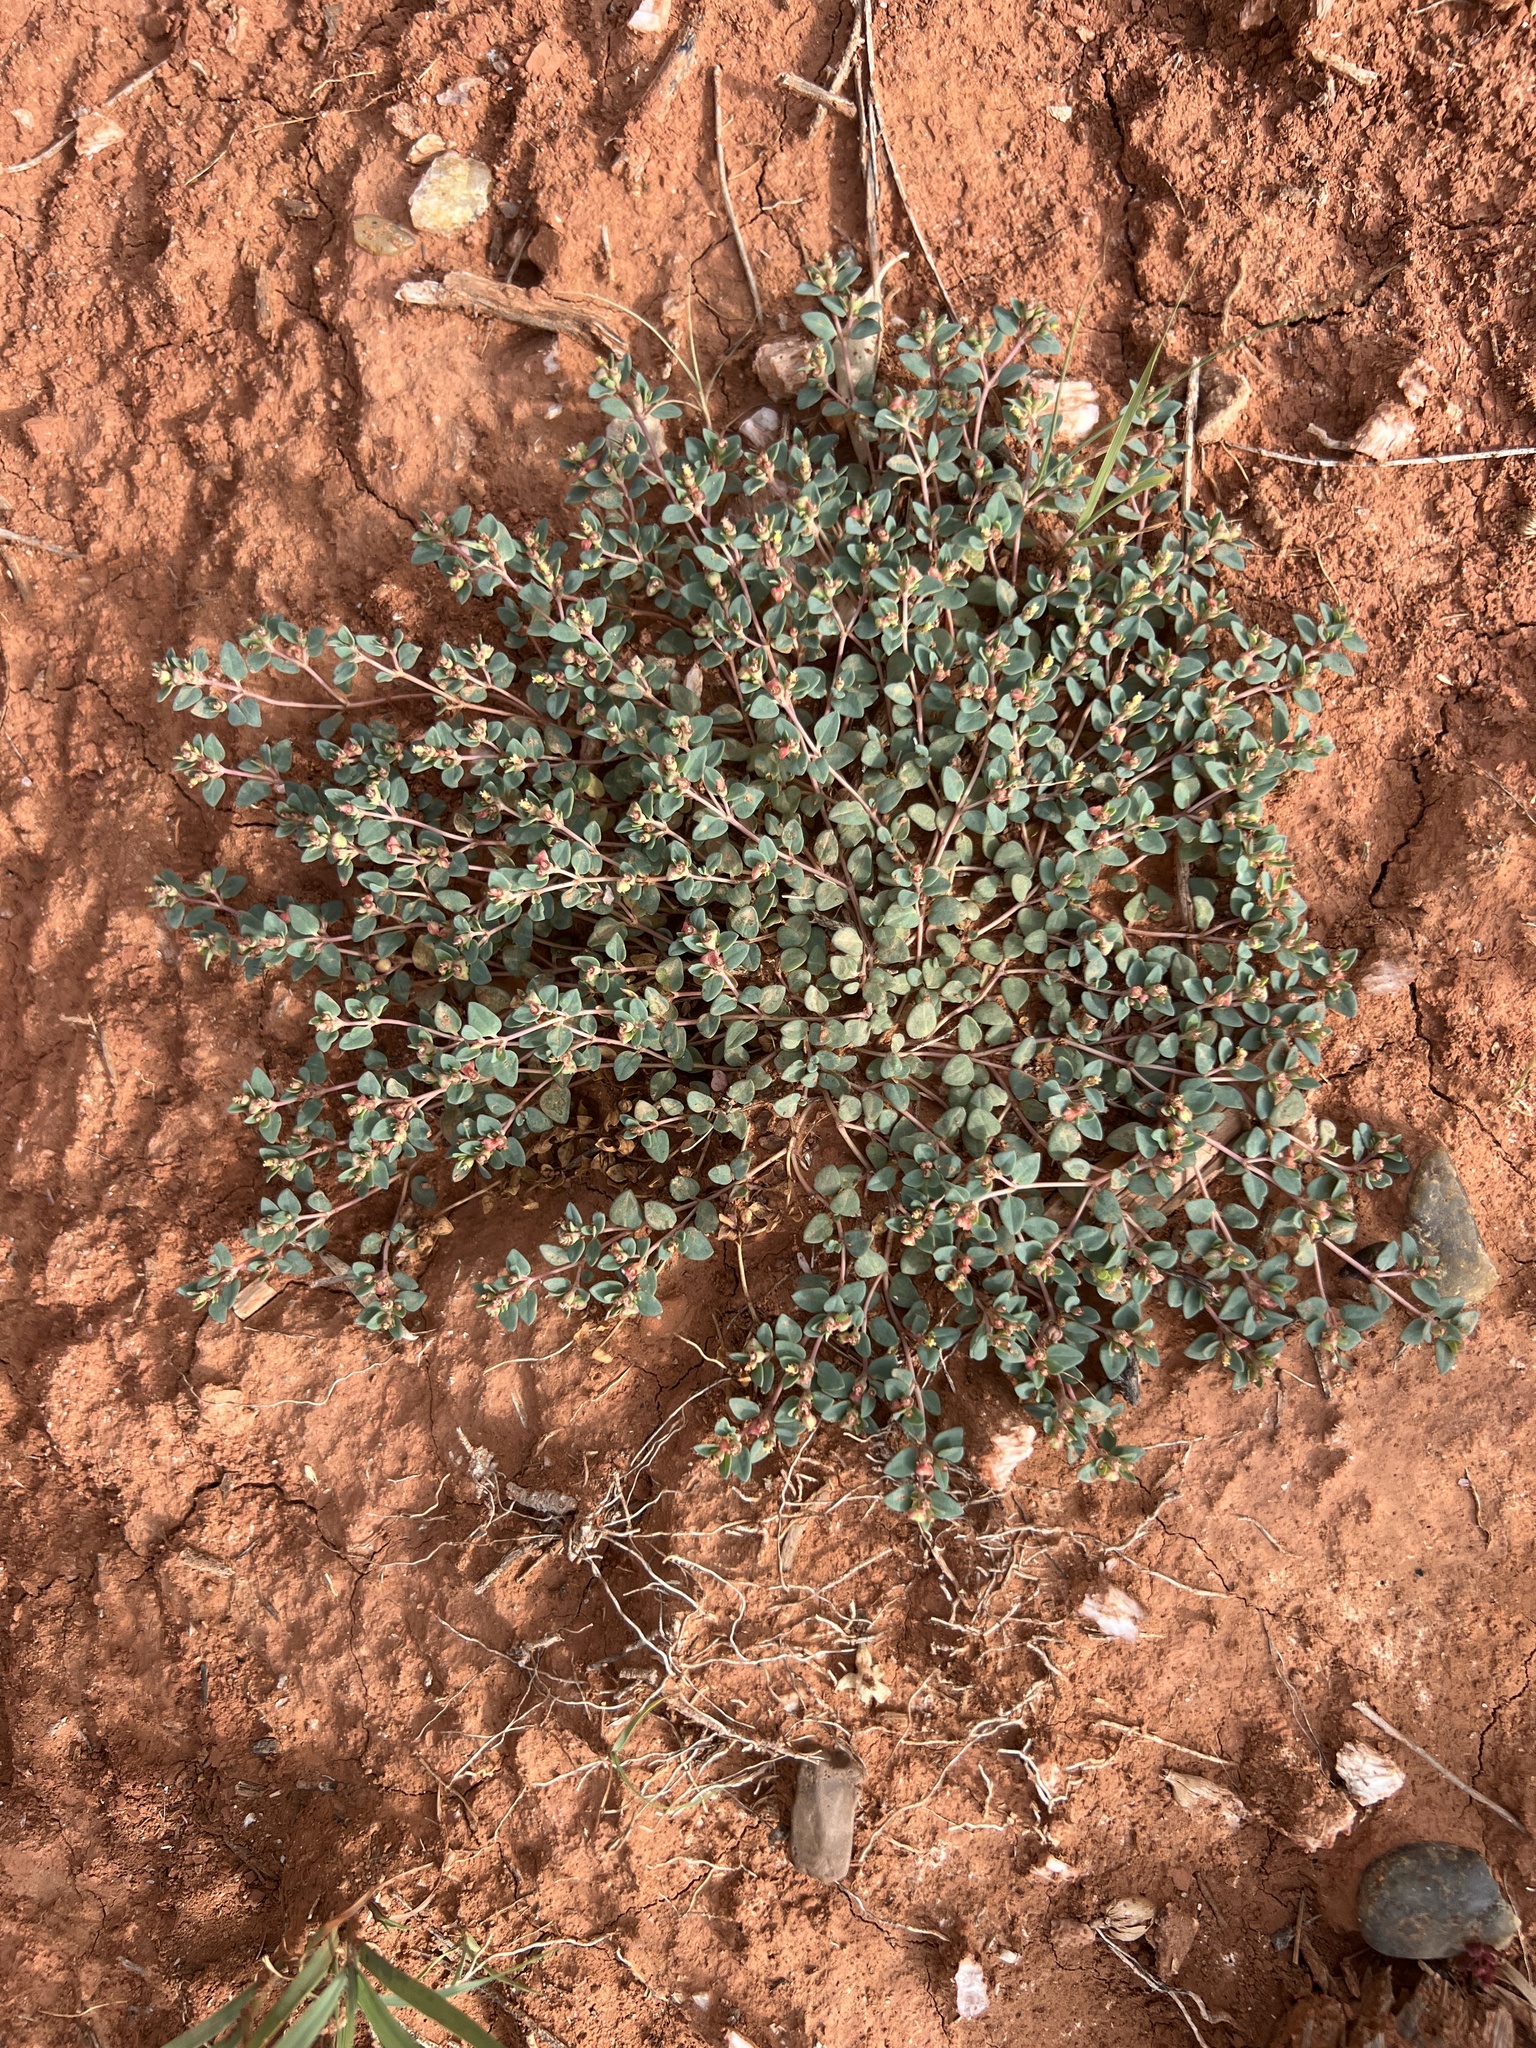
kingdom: Plantae
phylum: Tracheophyta
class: Magnoliopsida
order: Malpighiales
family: Euphorbiaceae
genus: Euphorbia
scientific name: Euphorbia fendleri
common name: Fendler's euphorbia
